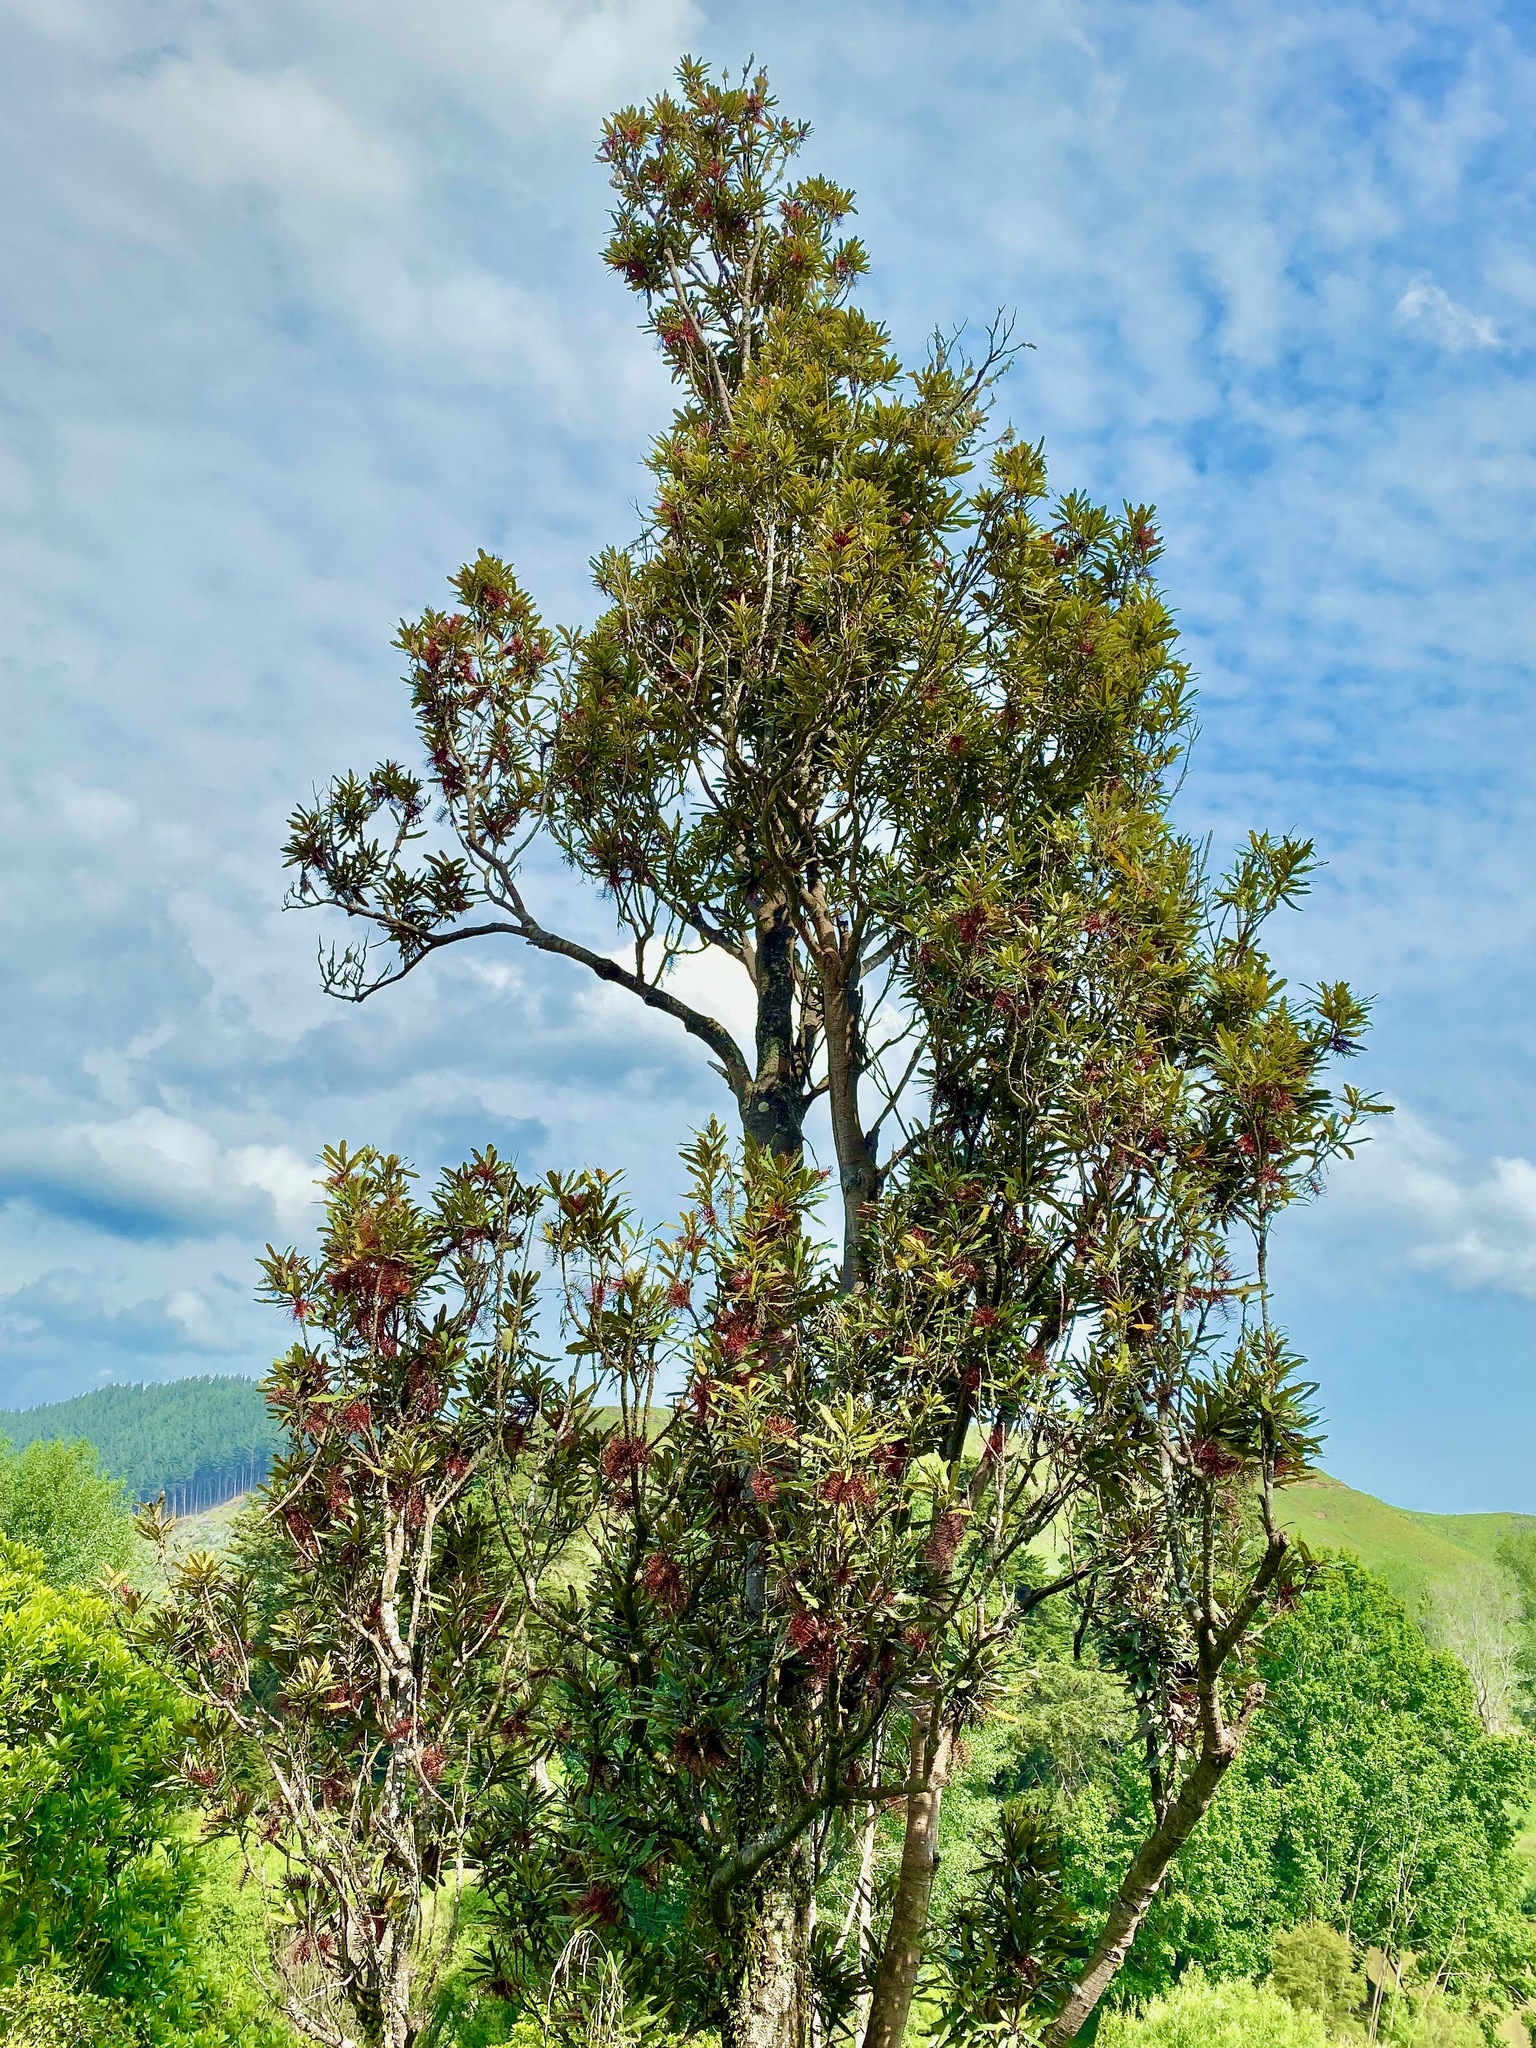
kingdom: Plantae
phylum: Tracheophyta
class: Magnoliopsida
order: Proteales
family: Proteaceae
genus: Knightia
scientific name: Knightia excelsa
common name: New zealand-honeysuckle
